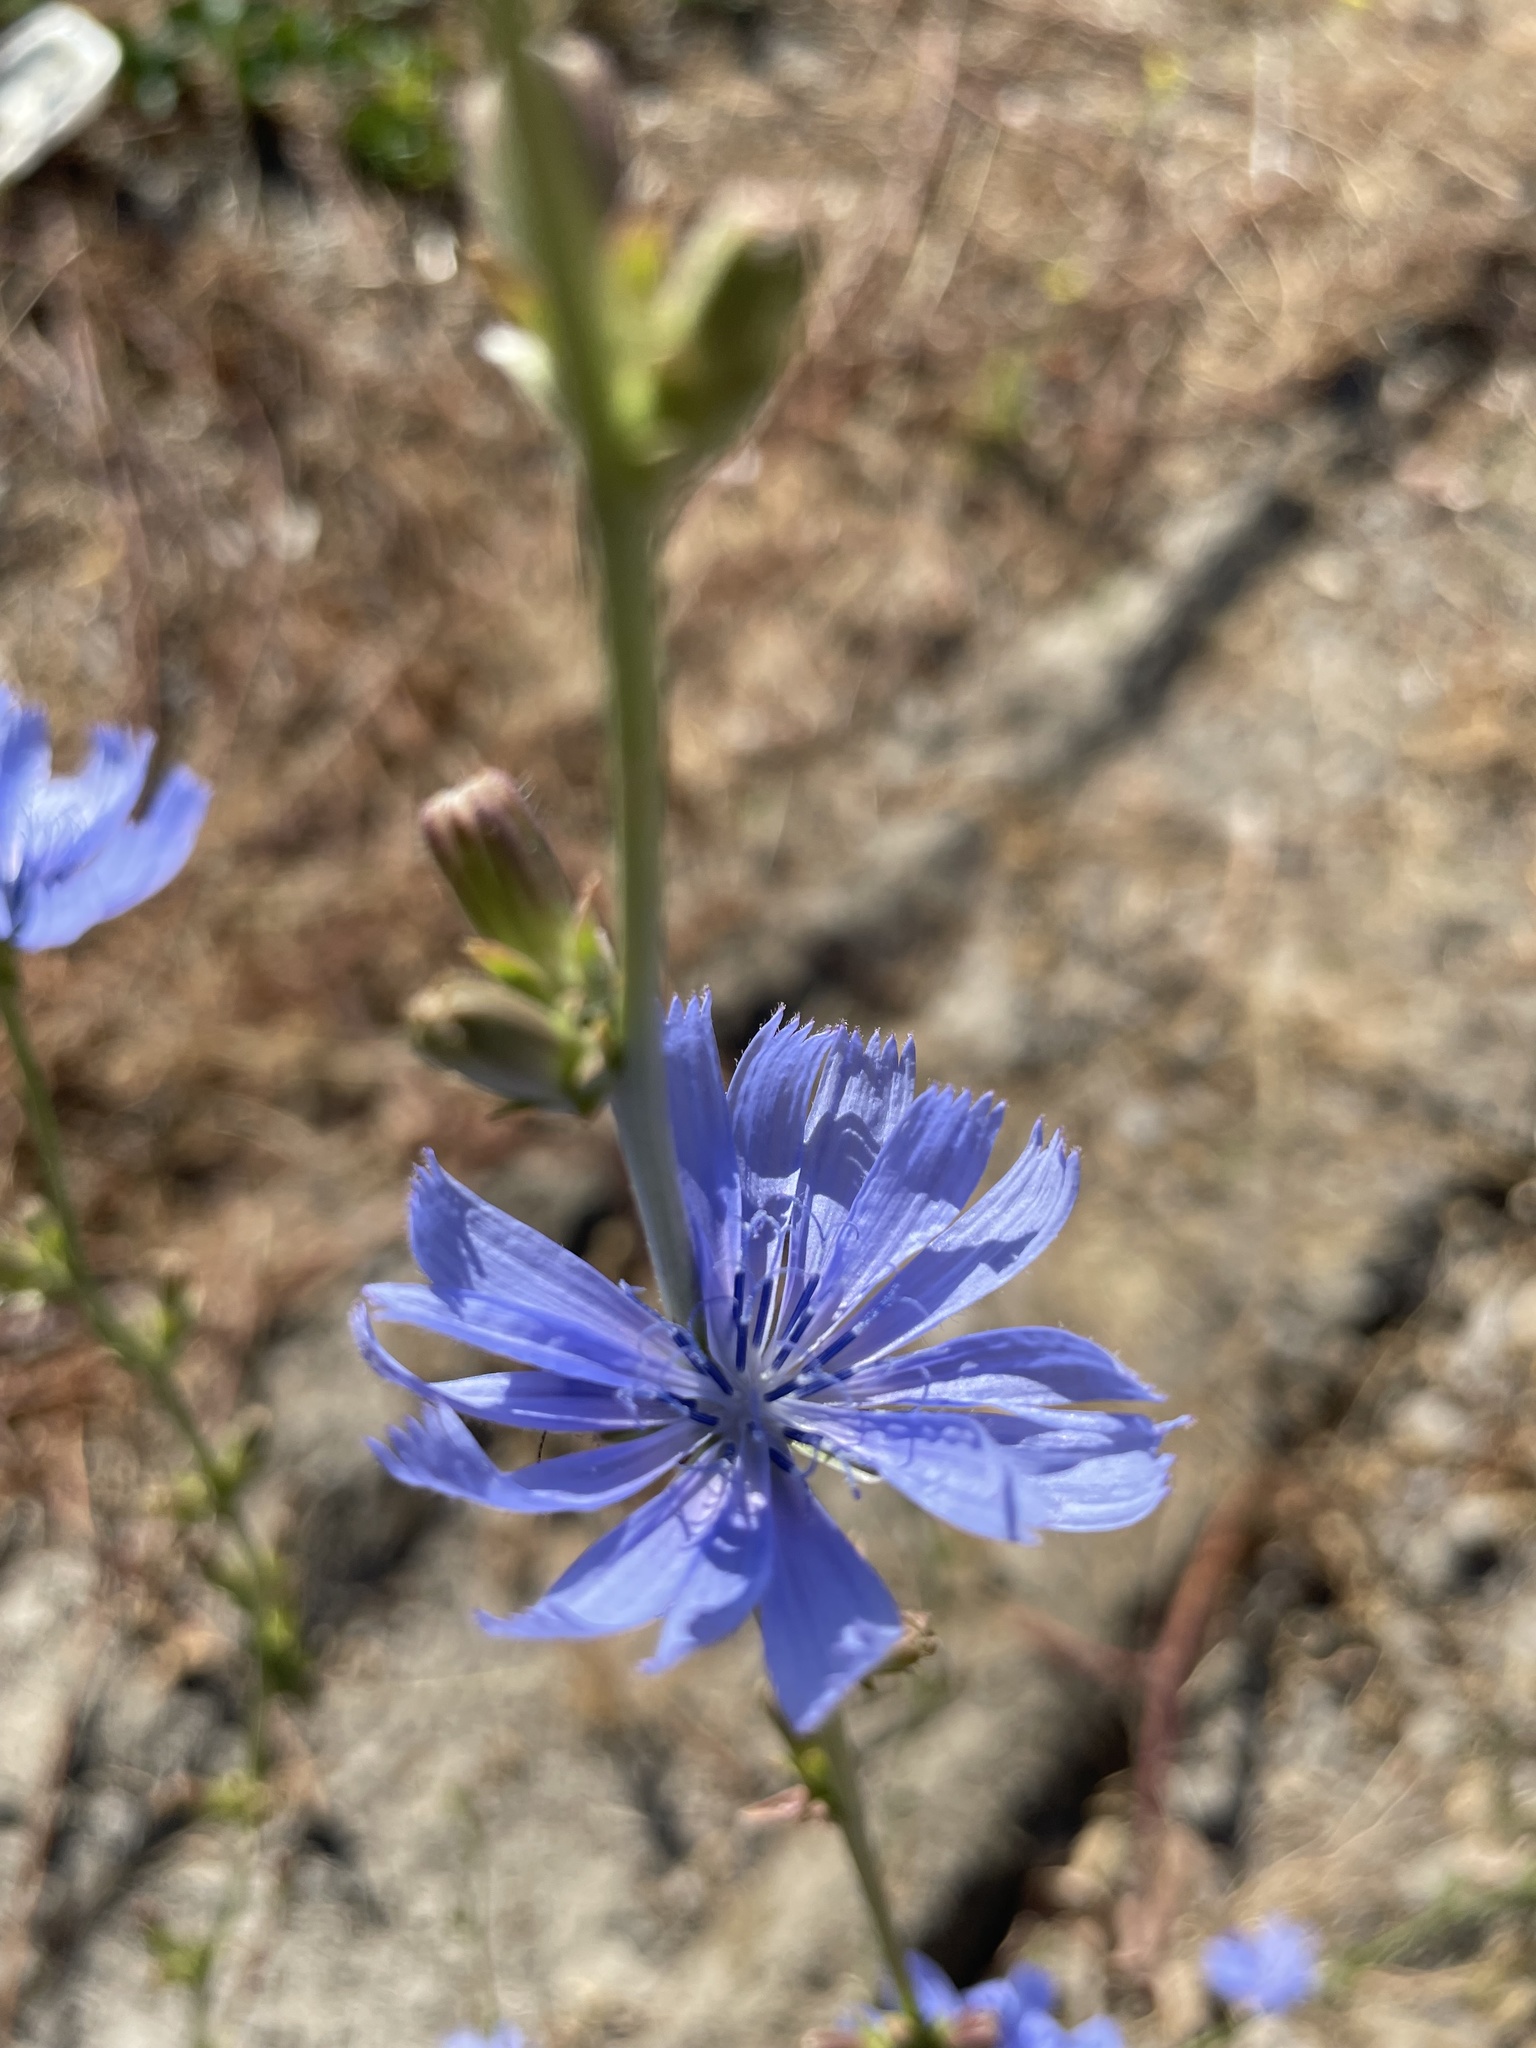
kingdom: Plantae
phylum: Tracheophyta
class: Magnoliopsida
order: Asterales
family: Asteraceae
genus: Cichorium
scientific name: Cichorium intybus
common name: Chicory
